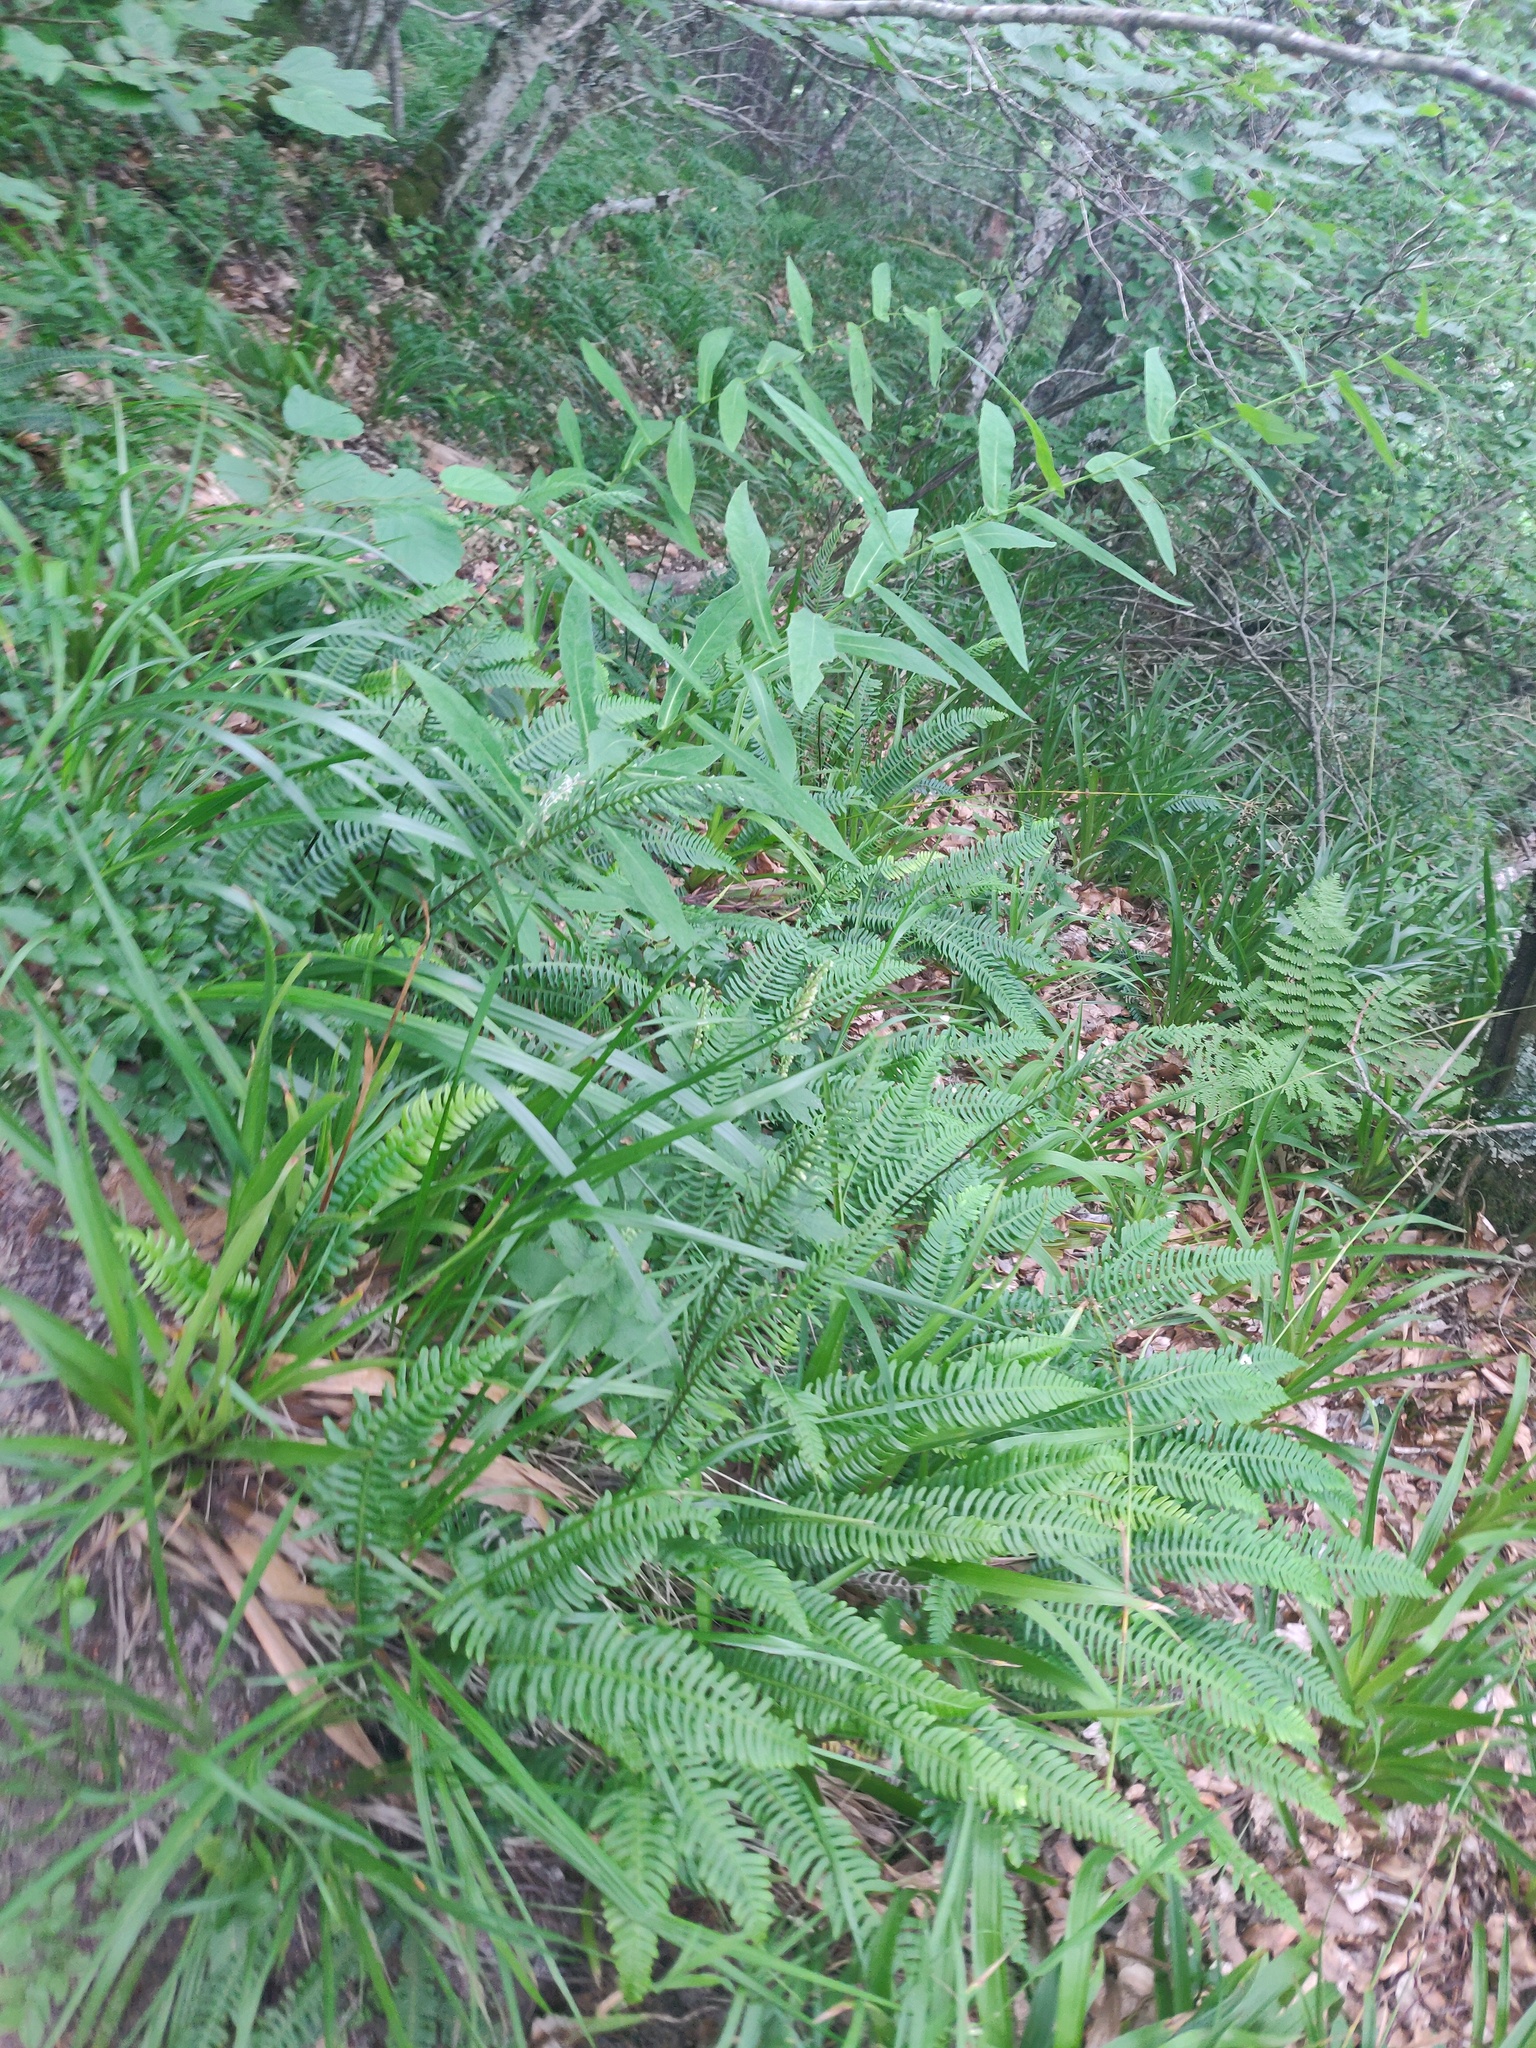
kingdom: Plantae
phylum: Tracheophyta
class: Polypodiopsida
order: Polypodiales
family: Blechnaceae
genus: Struthiopteris
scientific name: Struthiopteris spicant
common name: Deer fern
